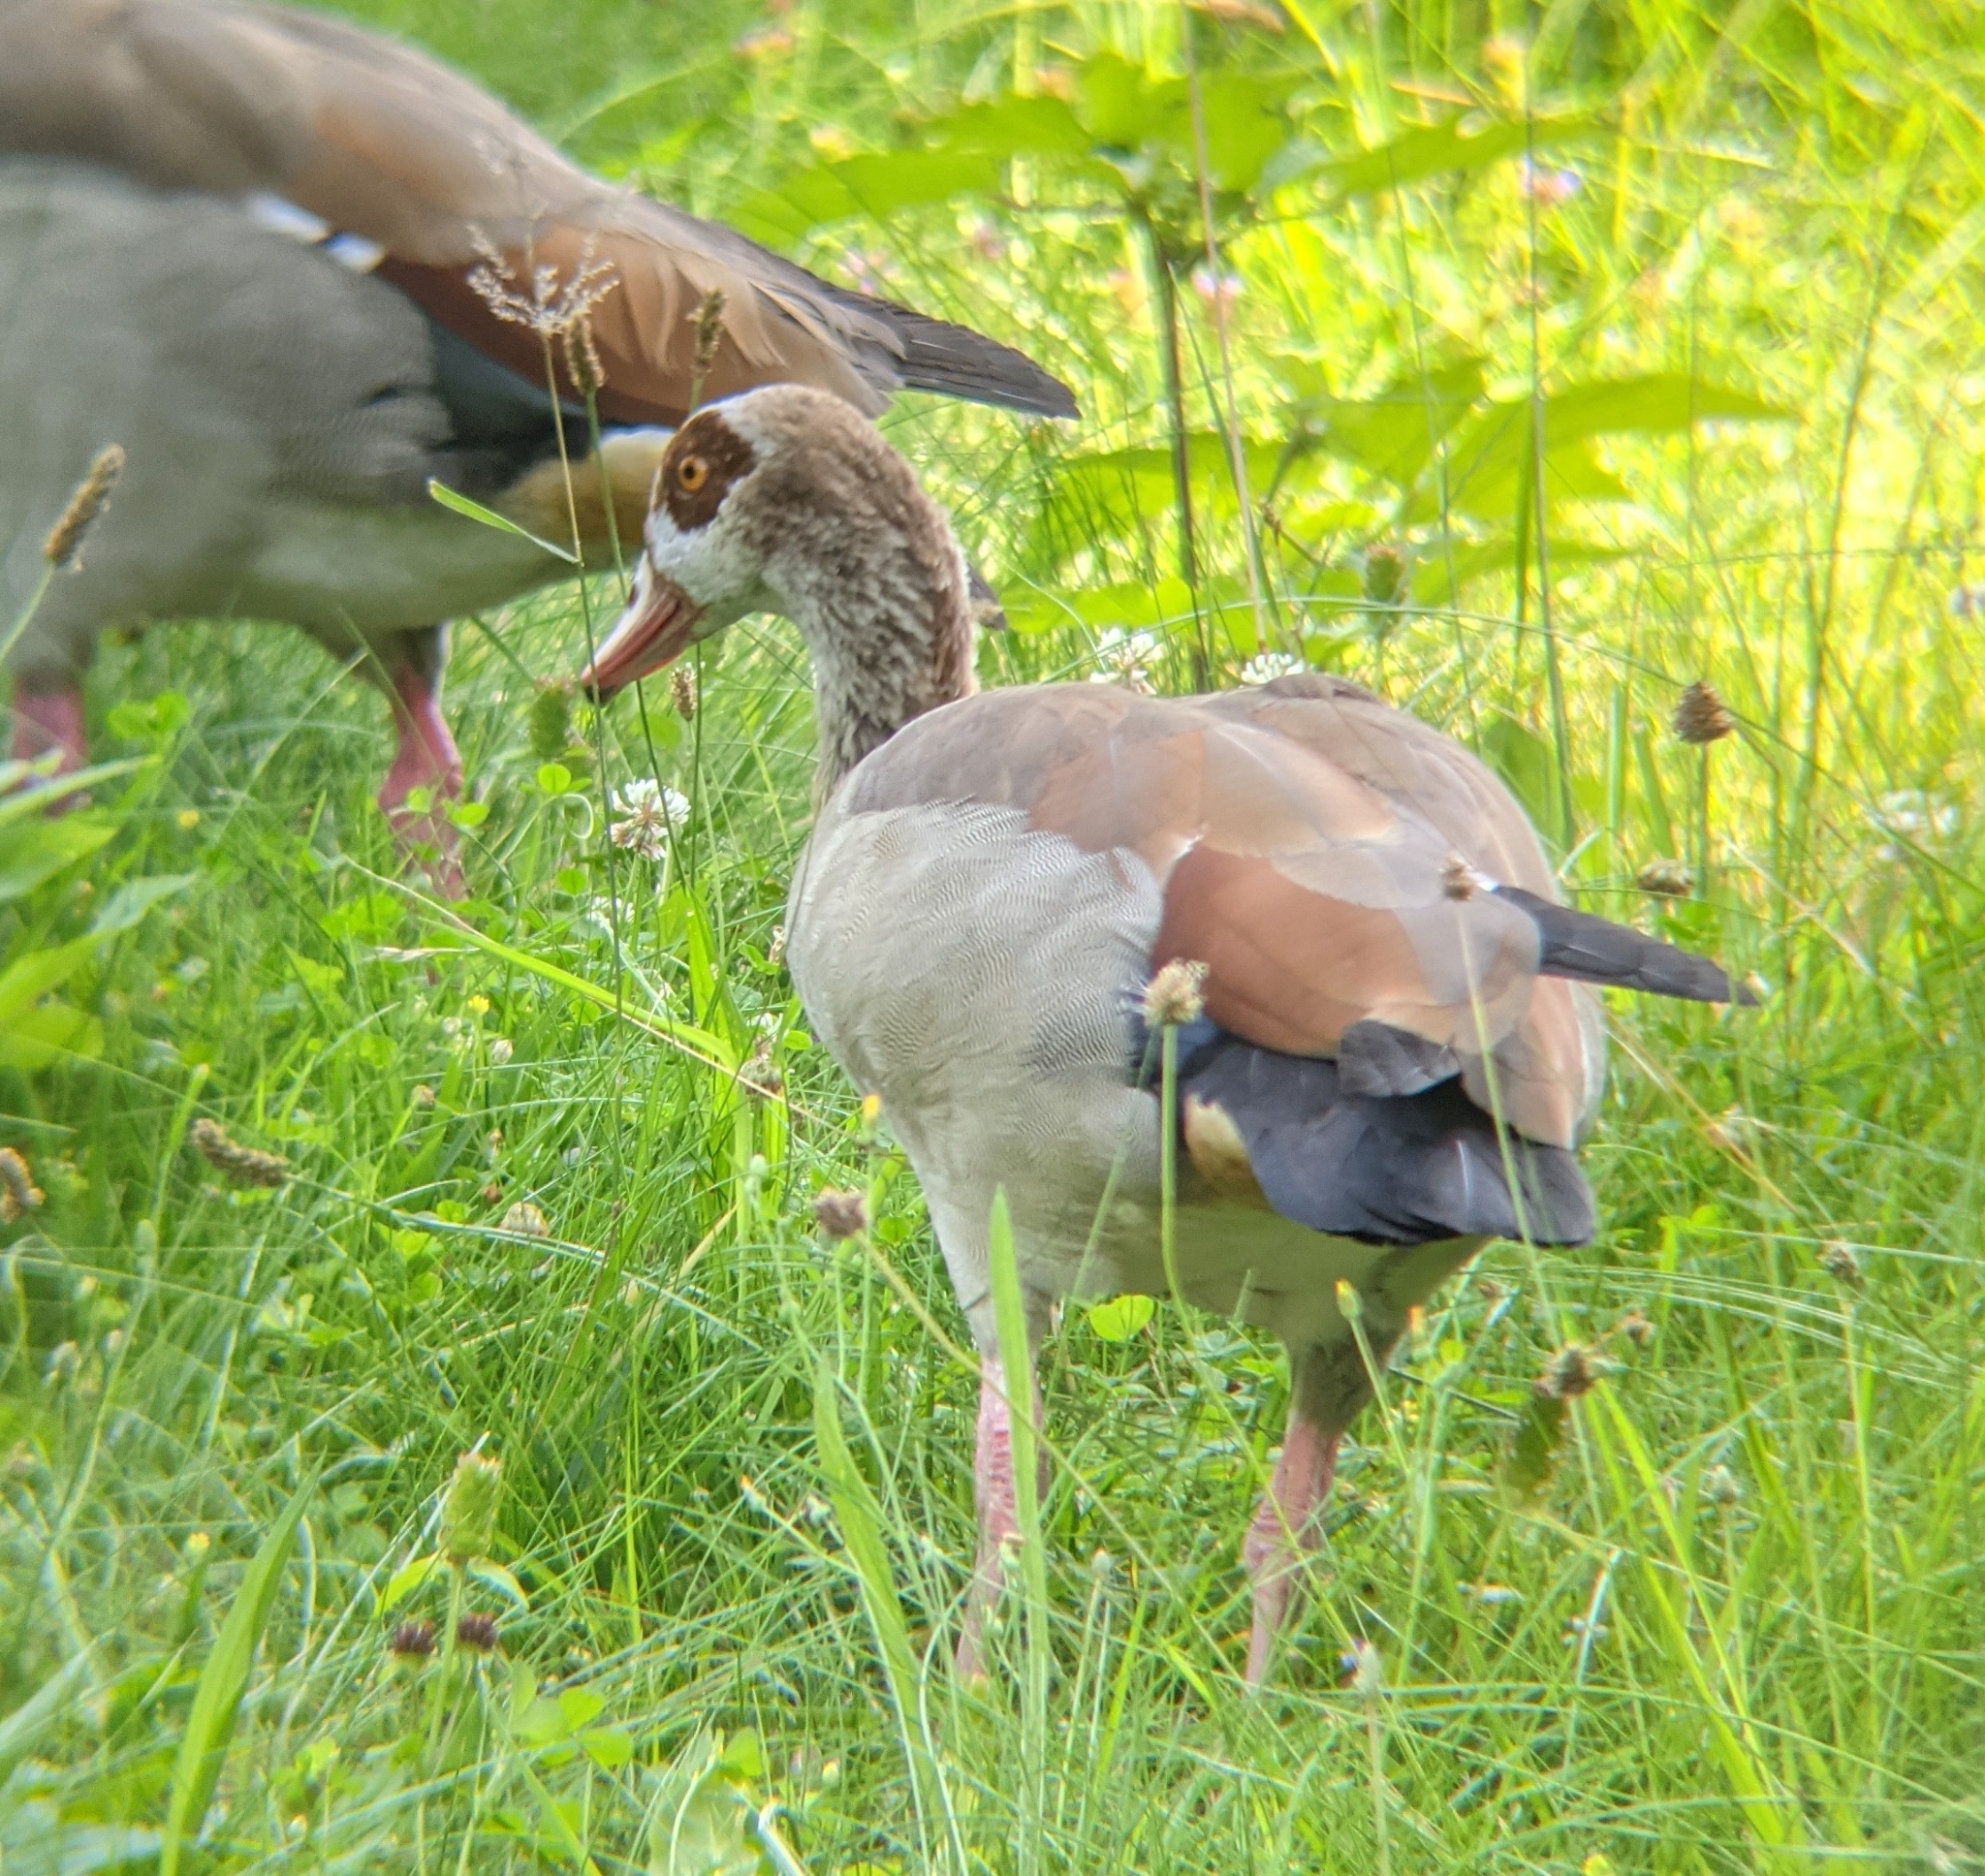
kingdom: Animalia
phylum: Chordata
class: Aves
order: Anseriformes
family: Anatidae
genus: Alopochen
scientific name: Alopochen aegyptiaca
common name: Egyptian goose
